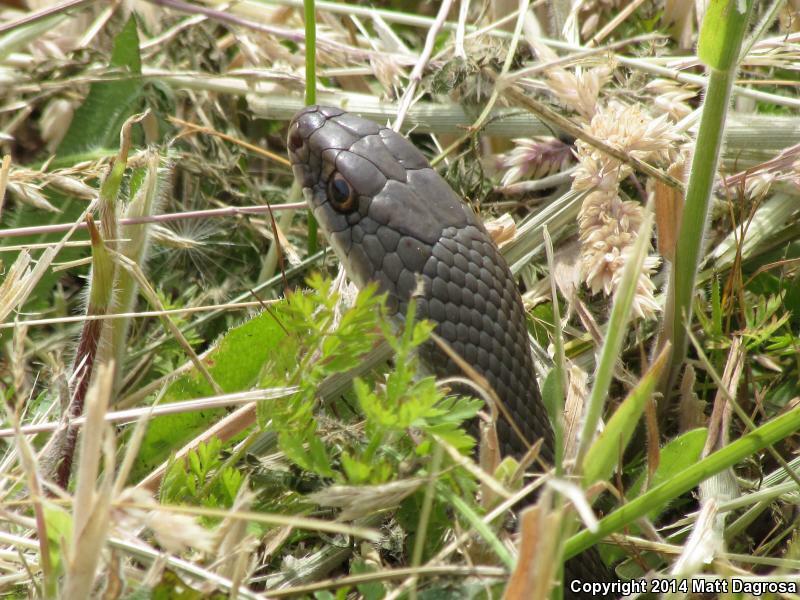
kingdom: Animalia
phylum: Chordata
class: Squamata
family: Colubridae
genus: Coluber
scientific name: Coluber constrictor
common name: Eastern racer
